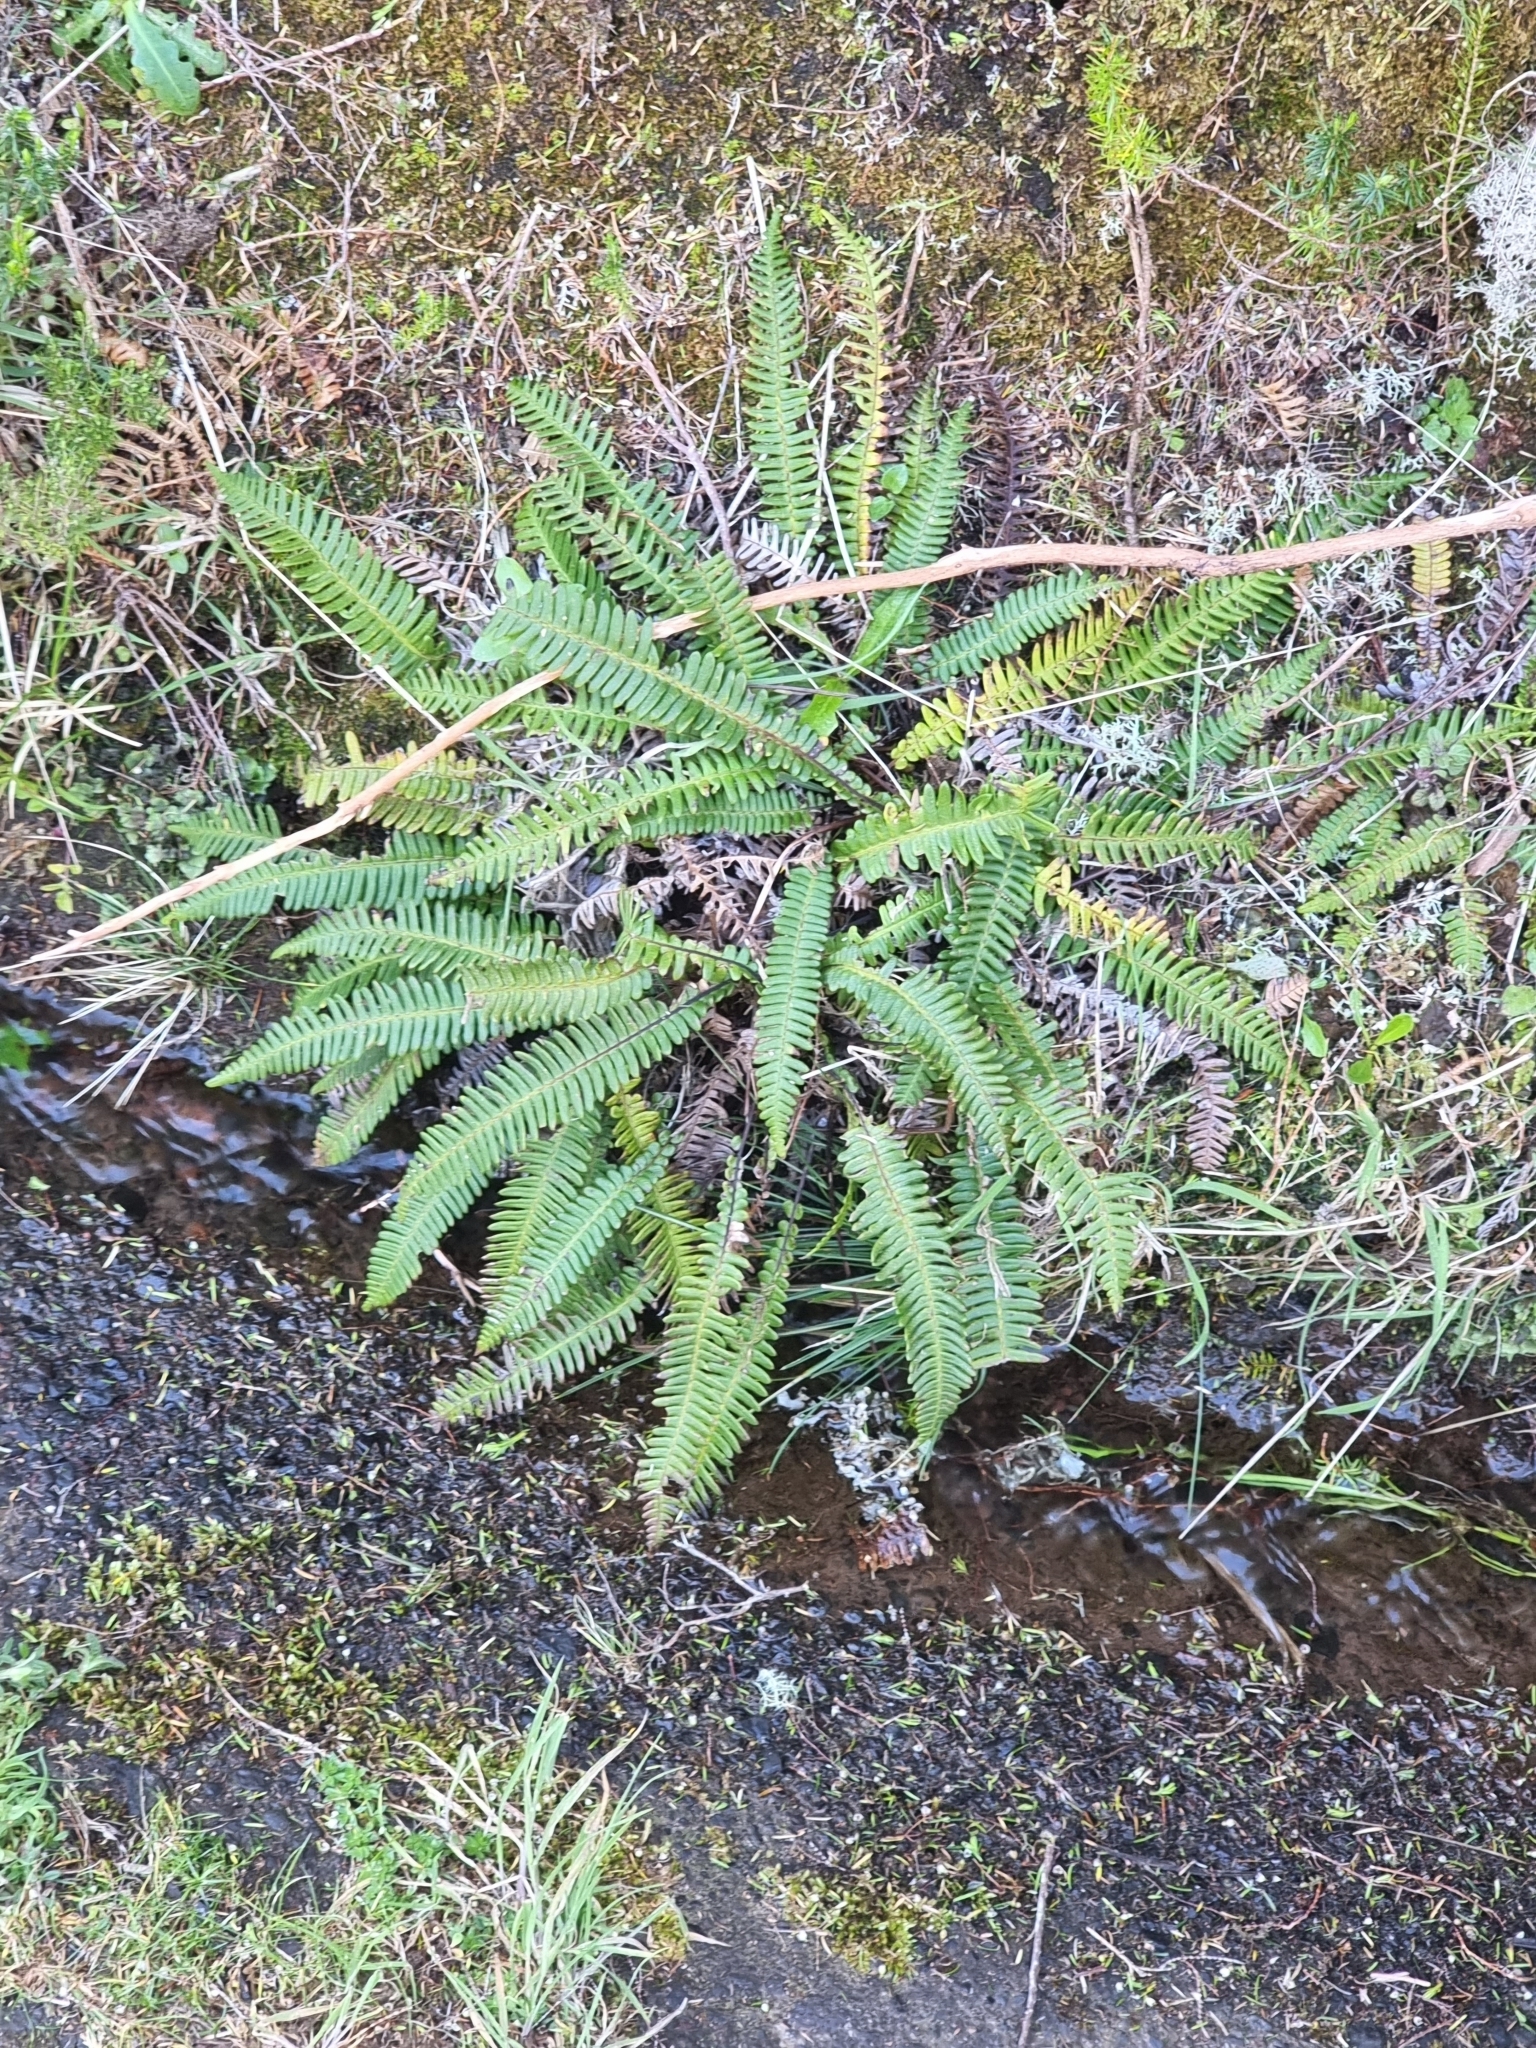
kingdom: Plantae
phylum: Tracheophyta
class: Polypodiopsida
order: Polypodiales
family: Blechnaceae
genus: Struthiopteris
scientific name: Struthiopteris spicant
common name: Deer fern
